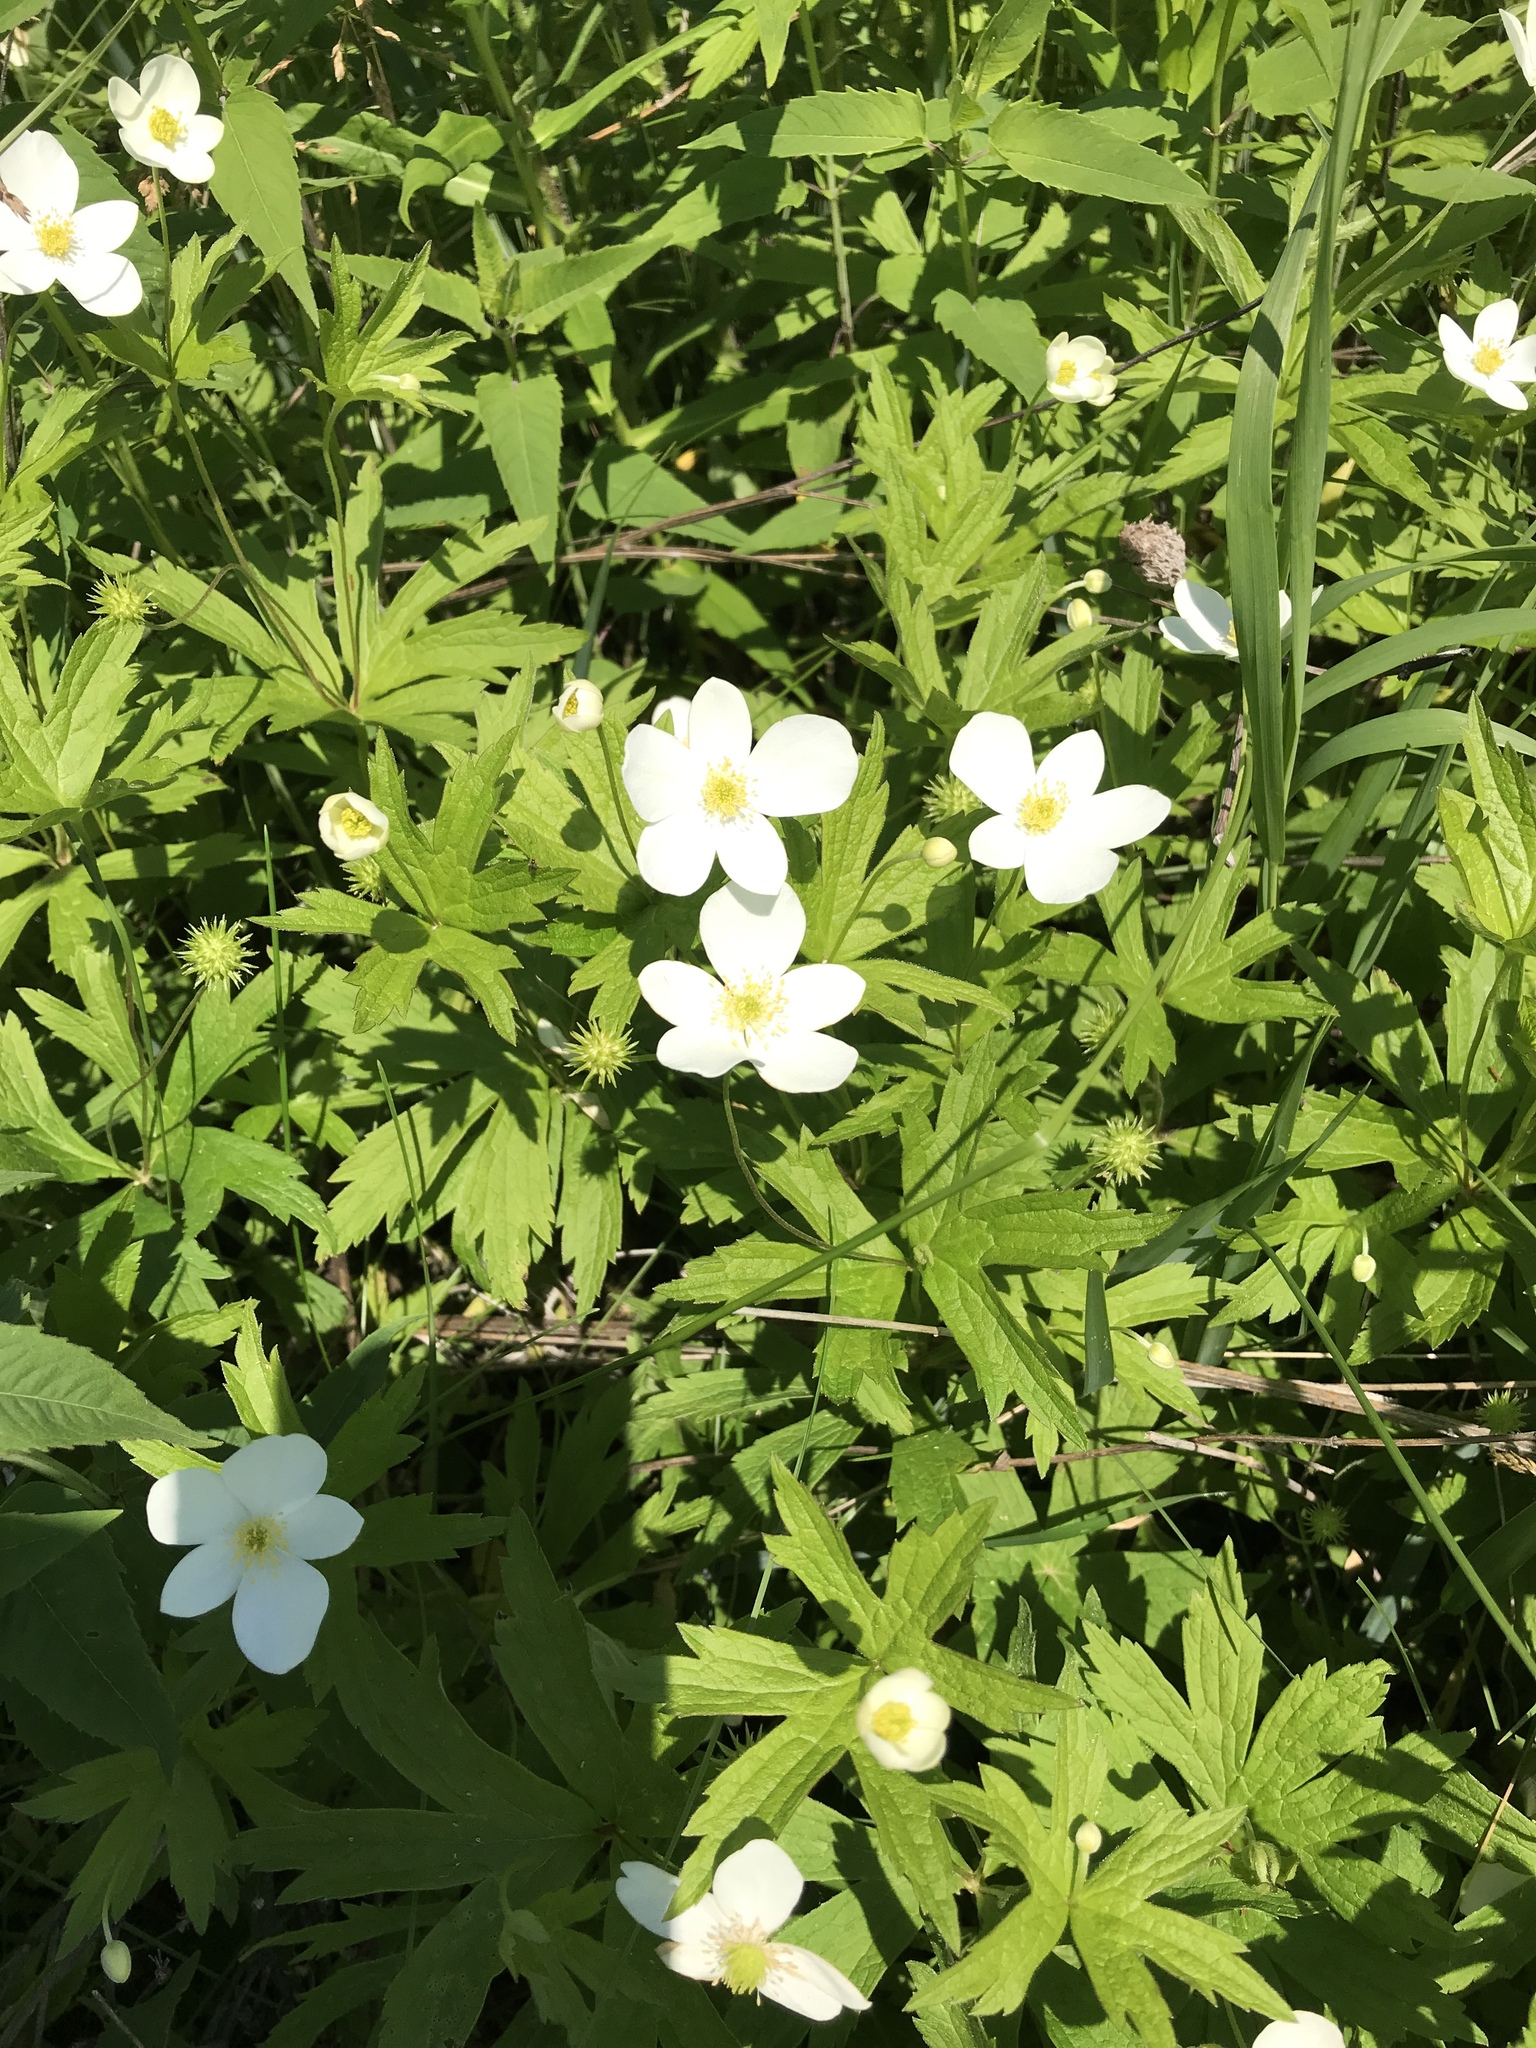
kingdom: Plantae
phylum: Tracheophyta
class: Magnoliopsida
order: Ranunculales
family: Ranunculaceae
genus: Anemonastrum
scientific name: Anemonastrum canadense
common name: Canada anemone
